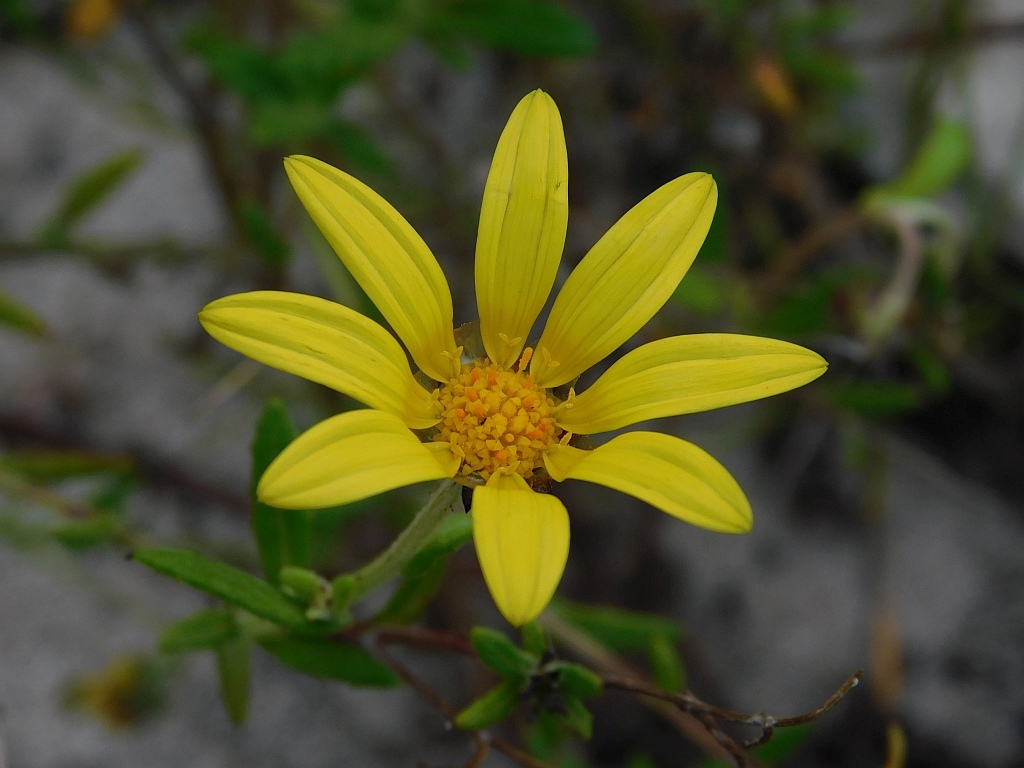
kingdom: Plantae
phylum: Tracheophyta
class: Magnoliopsida
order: Asterales
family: Asteraceae
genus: Arctotis
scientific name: Arctotis scabra
